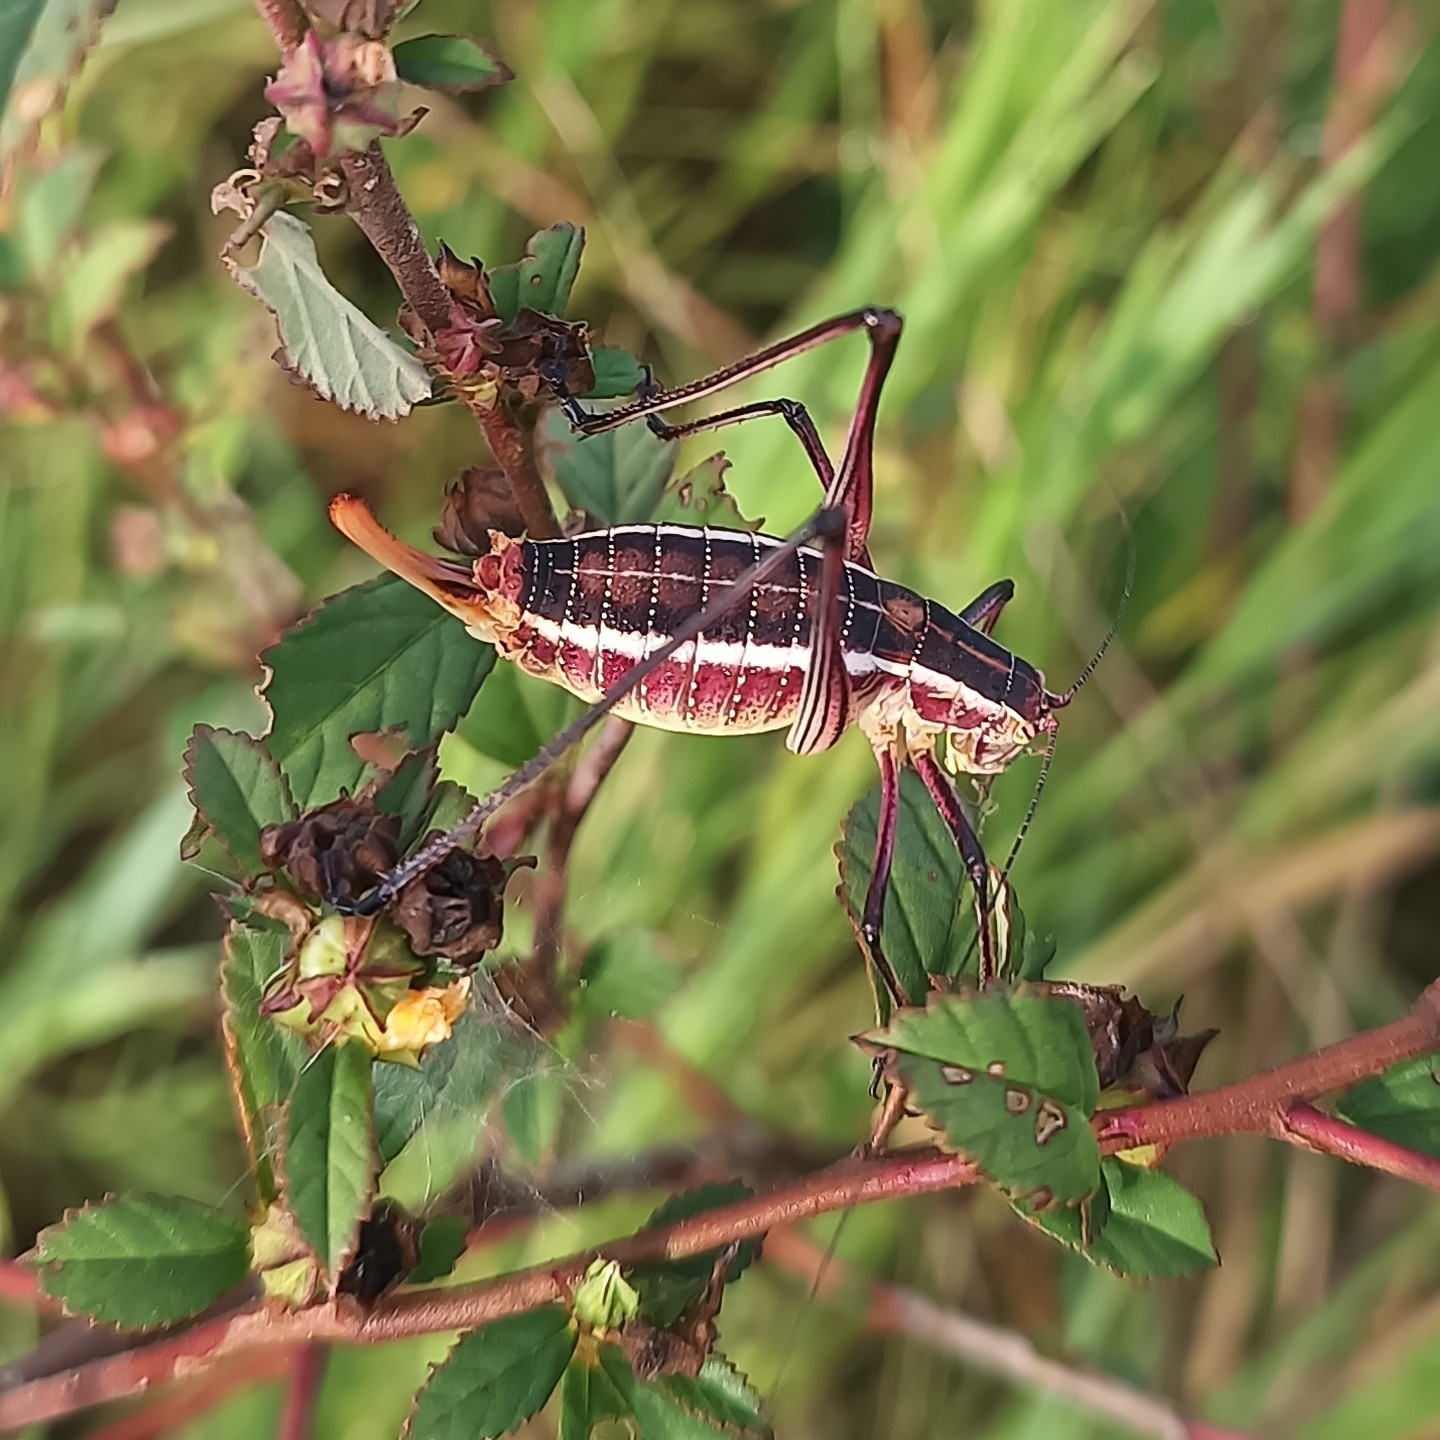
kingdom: Animalia
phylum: Arthropoda
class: Insecta
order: Orthoptera
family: Tettigoniidae
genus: Obolopteryx
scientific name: Obolopteryx brevihastata
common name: Common short-winged katydid
